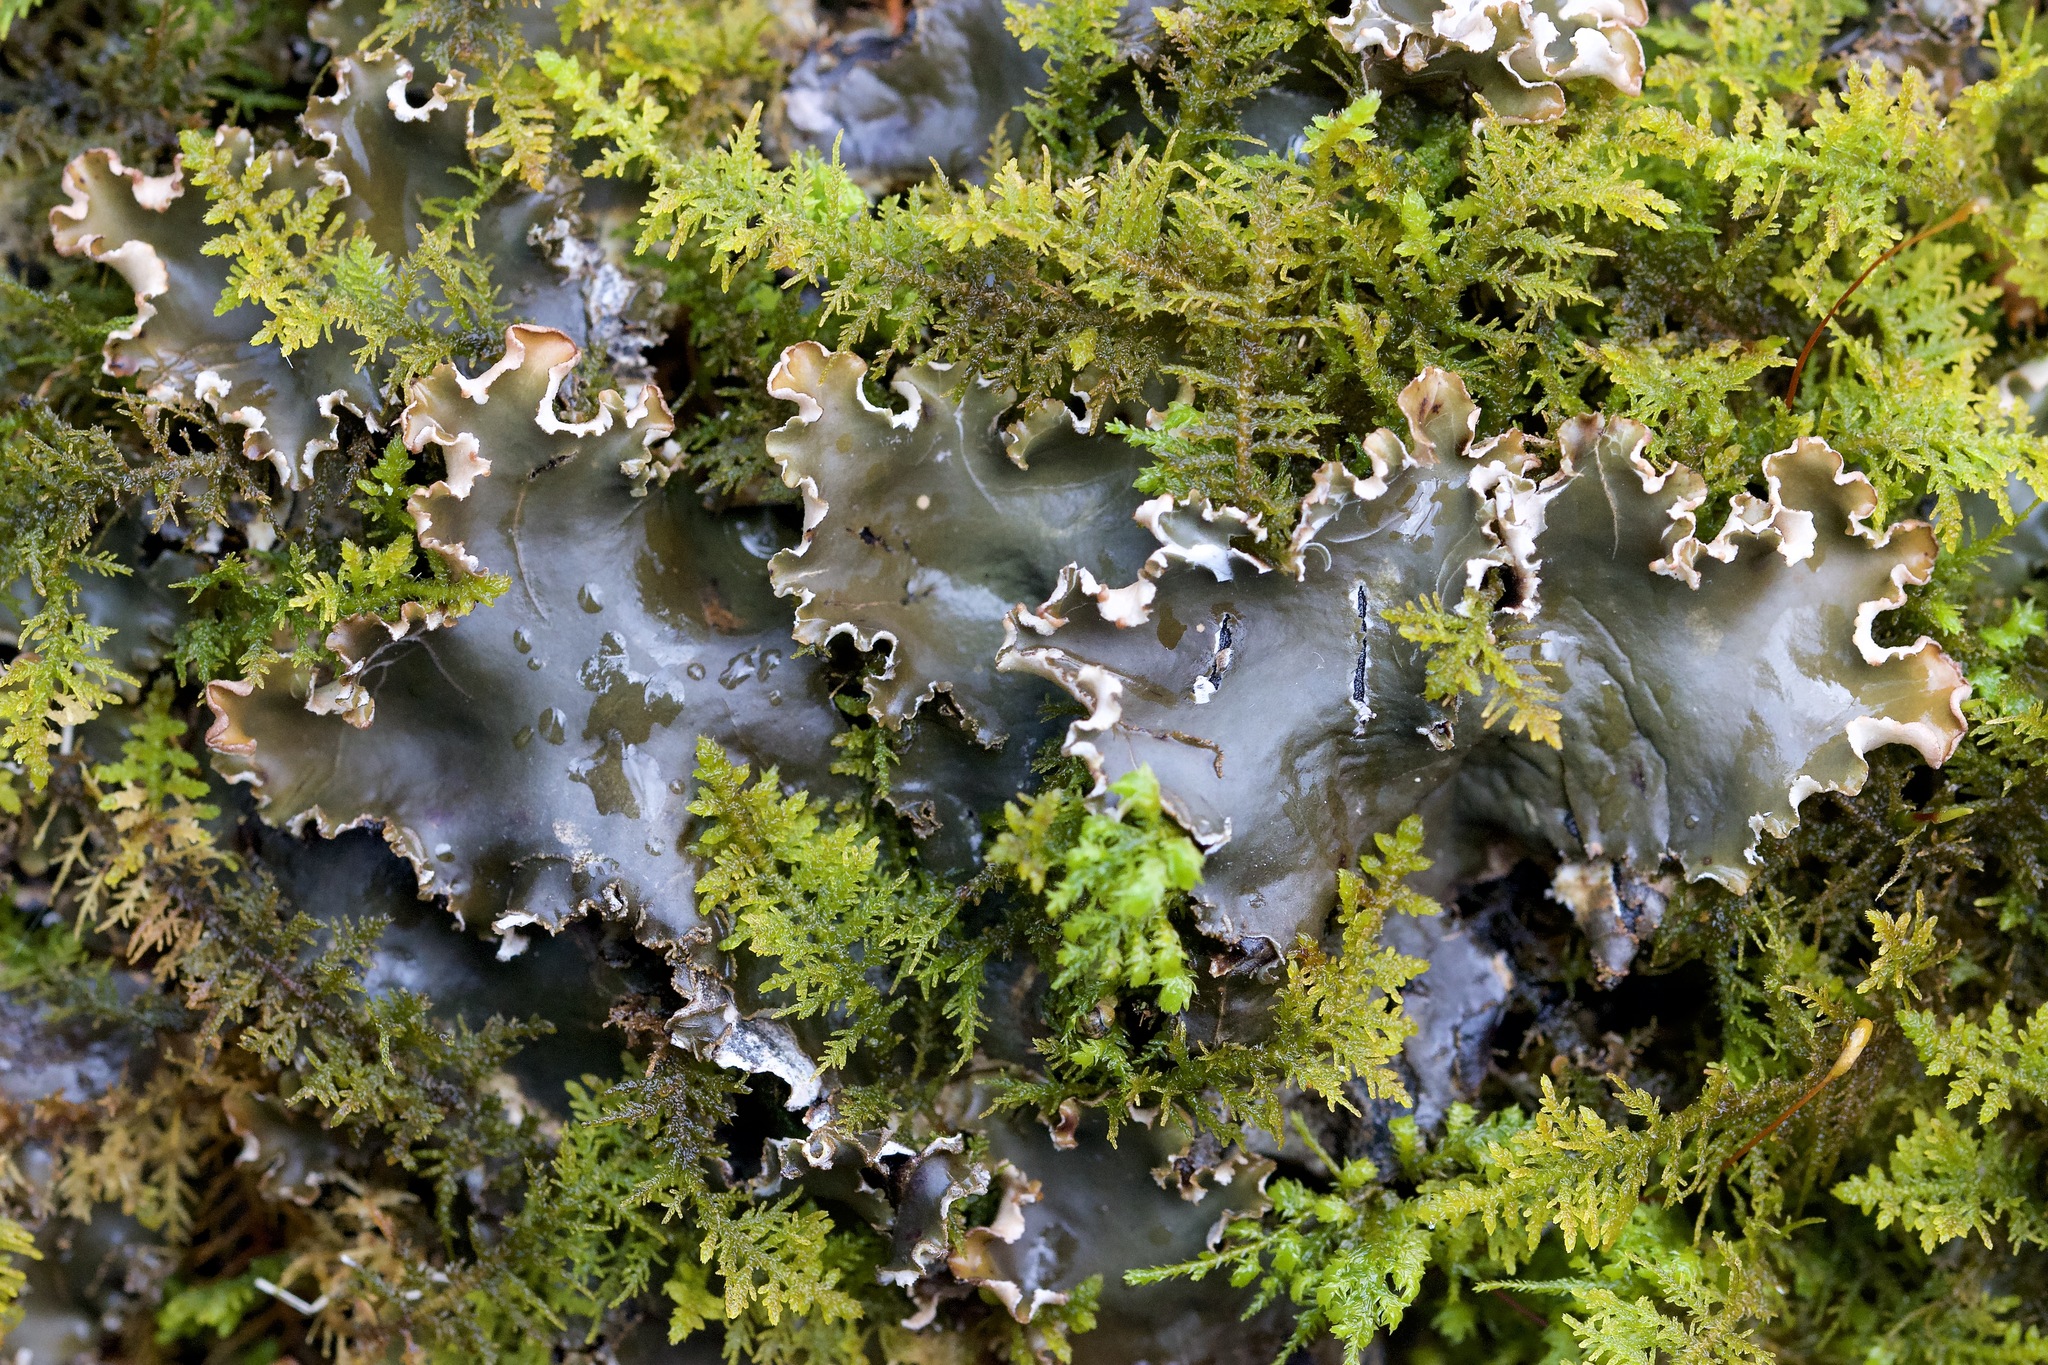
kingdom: Fungi
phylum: Ascomycota
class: Lecanoromycetes
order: Peltigerales
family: Peltigeraceae
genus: Peltigera
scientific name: Peltigera elisabethae
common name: Concentric pelt lichen
